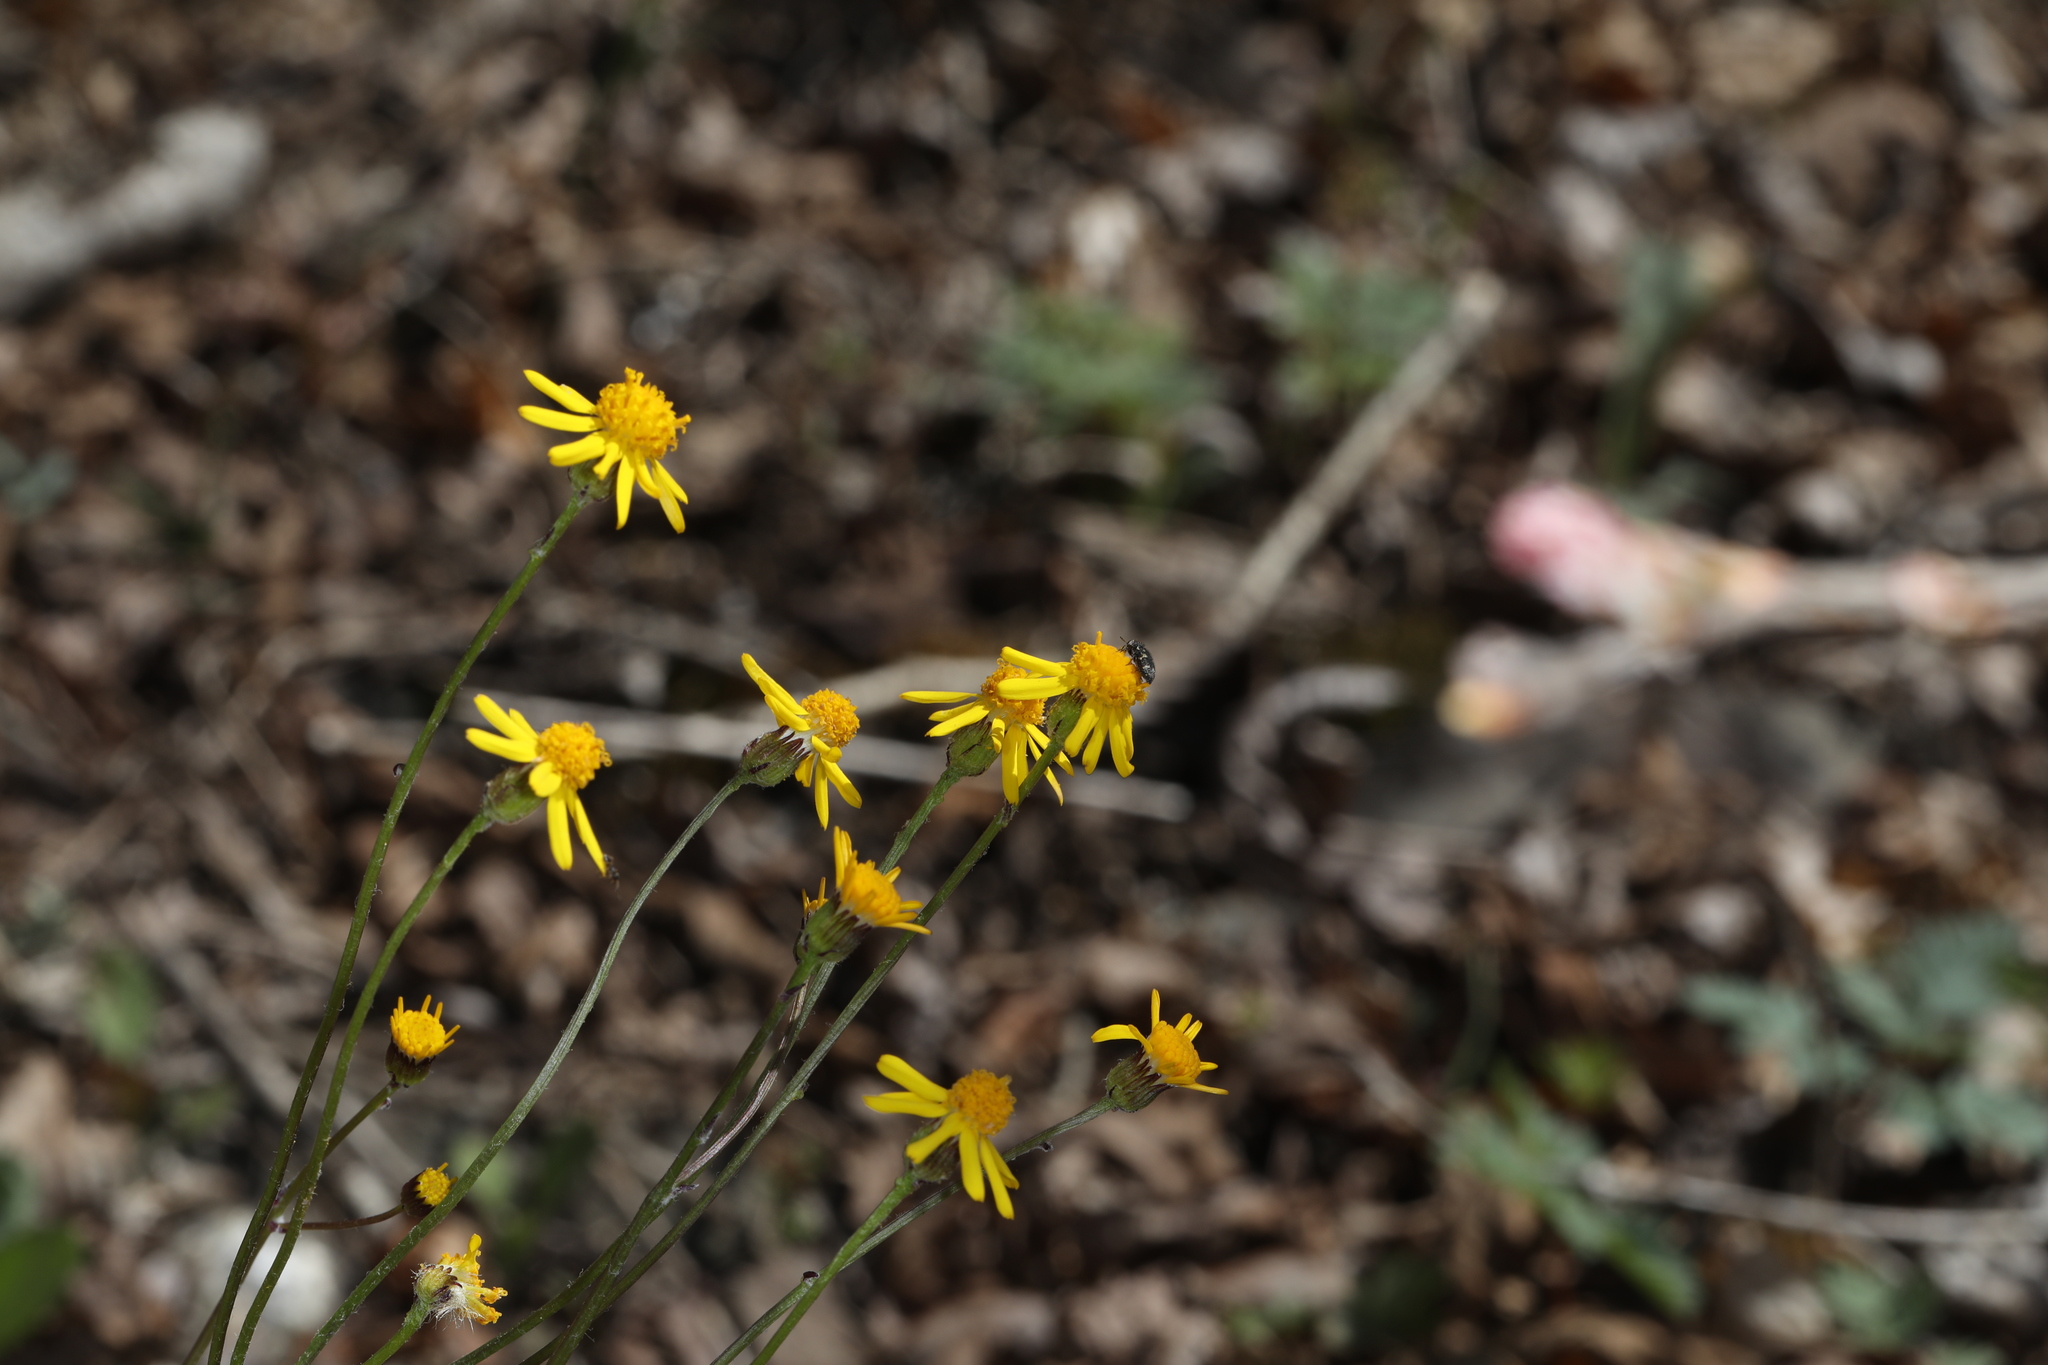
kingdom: Plantae
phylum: Tracheophyta
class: Magnoliopsida
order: Asterales
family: Asteraceae
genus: Packera
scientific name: Packera aurea
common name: Golden groundsel
